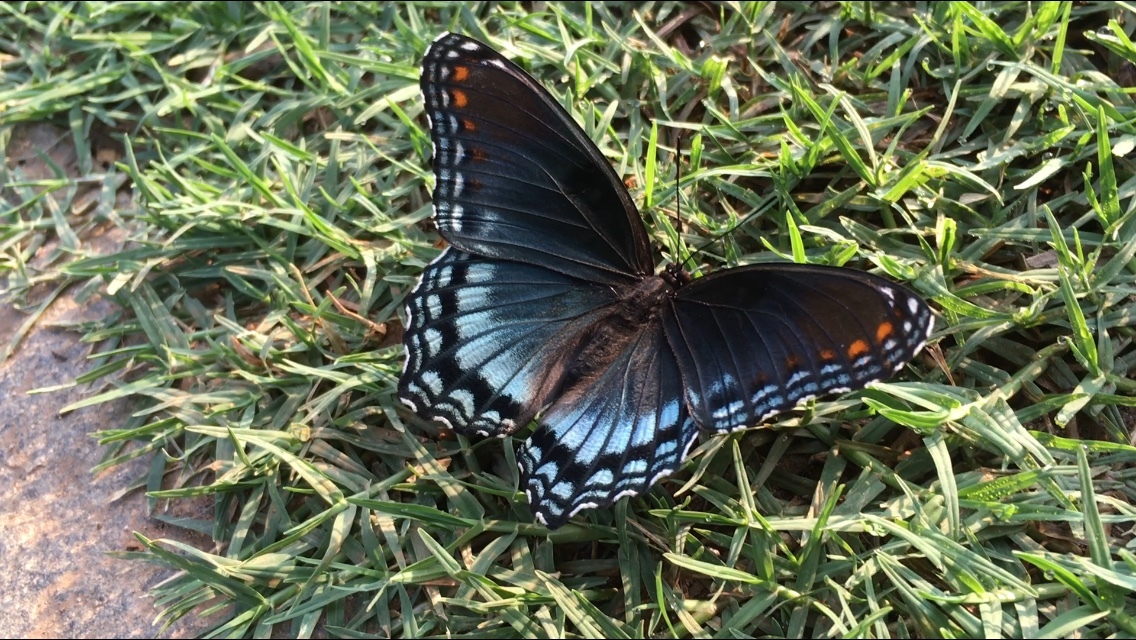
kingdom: Animalia
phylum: Arthropoda
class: Insecta
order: Lepidoptera
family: Nymphalidae
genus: Limenitis
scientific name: Limenitis astyanax
